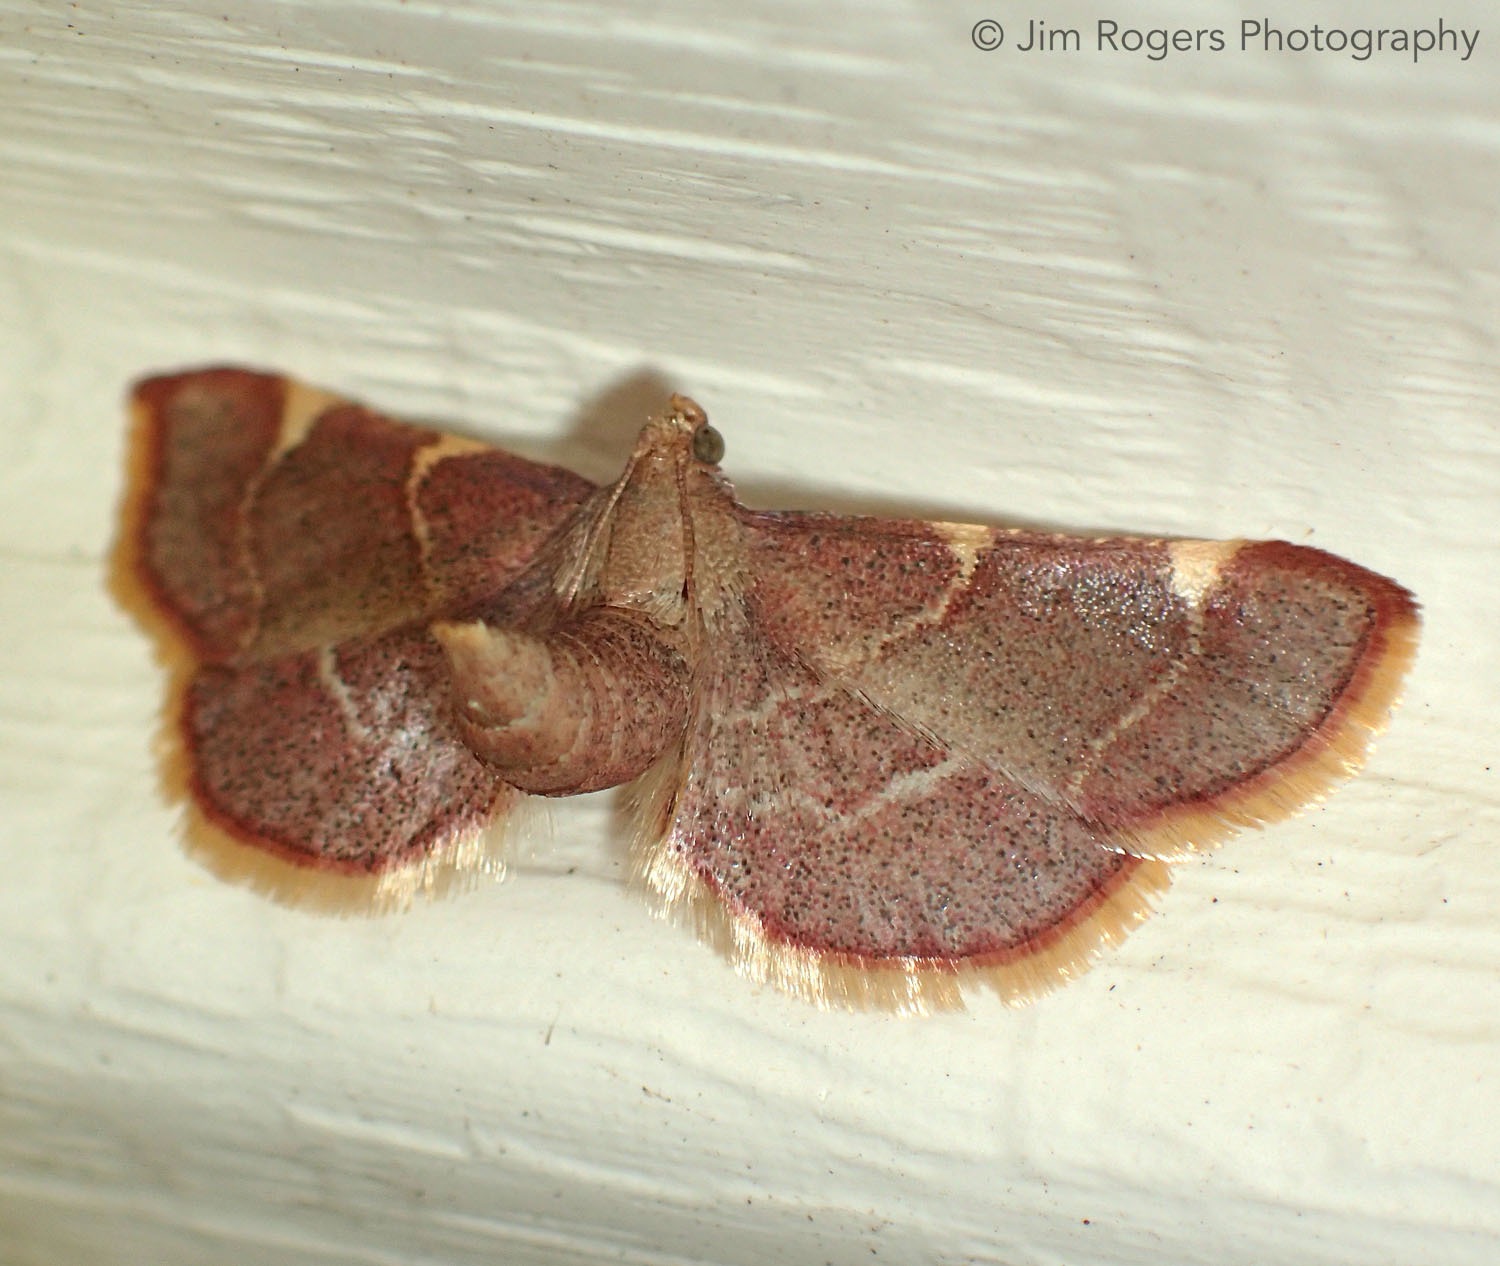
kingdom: Animalia
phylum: Arthropoda
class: Insecta
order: Lepidoptera
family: Pyralidae
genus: Hypsopygia
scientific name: Hypsopygia olinalis
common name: Yellow-fringed dolichomia moth
